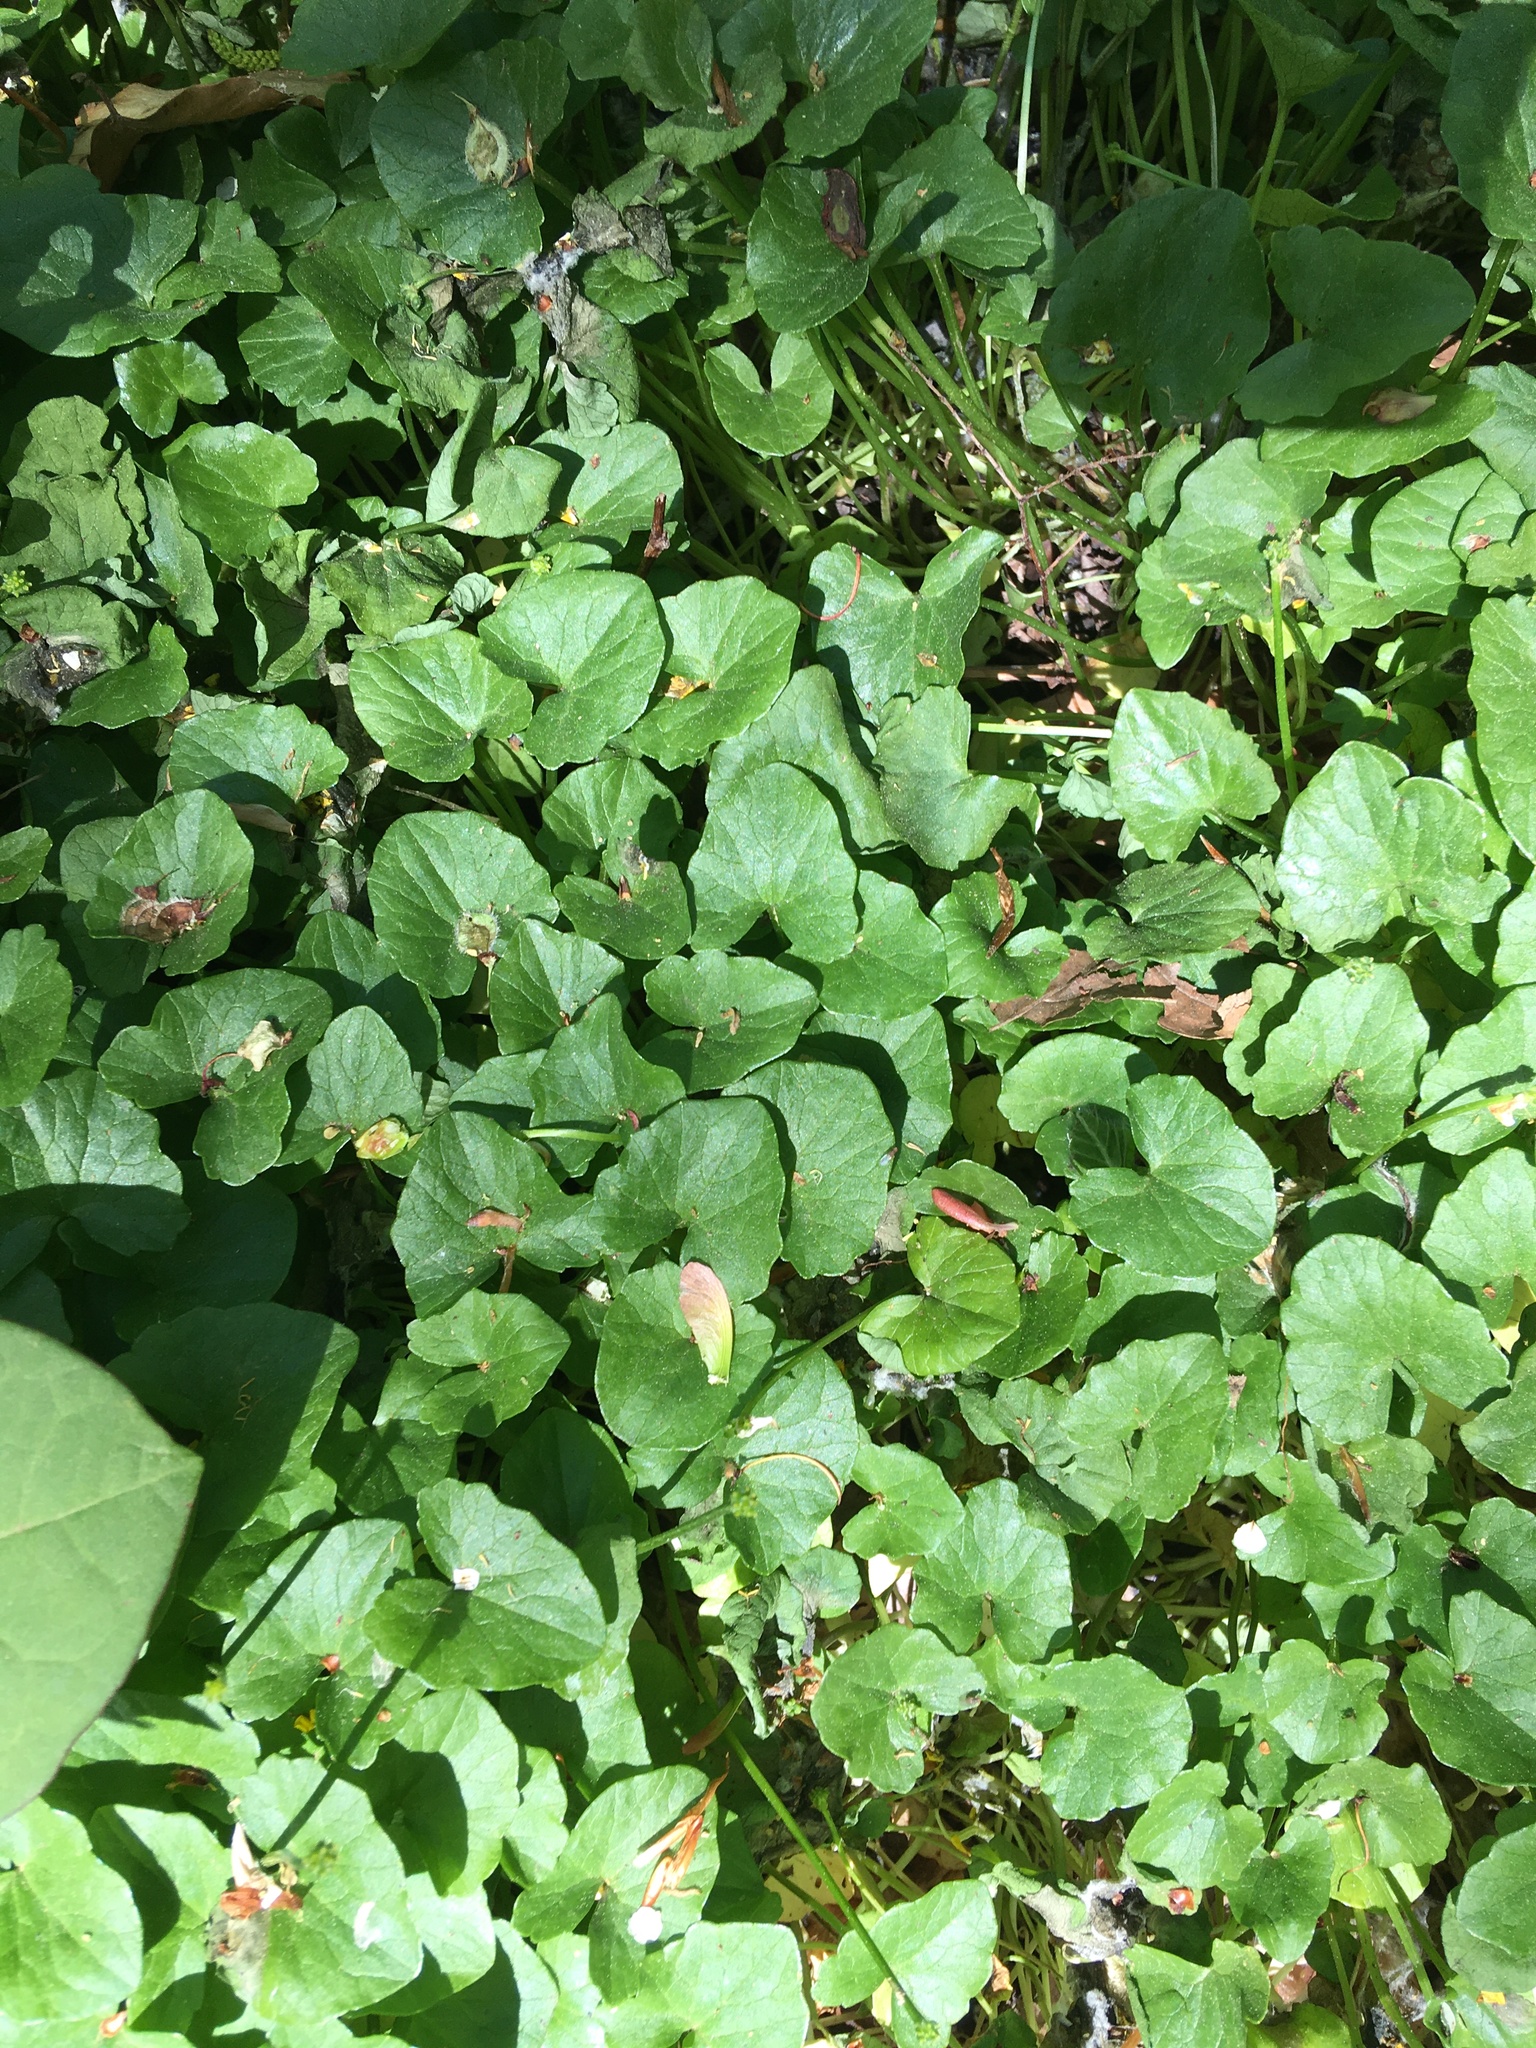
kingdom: Plantae
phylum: Tracheophyta
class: Magnoliopsida
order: Ranunculales
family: Ranunculaceae
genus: Ficaria
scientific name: Ficaria verna
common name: Lesser celandine
